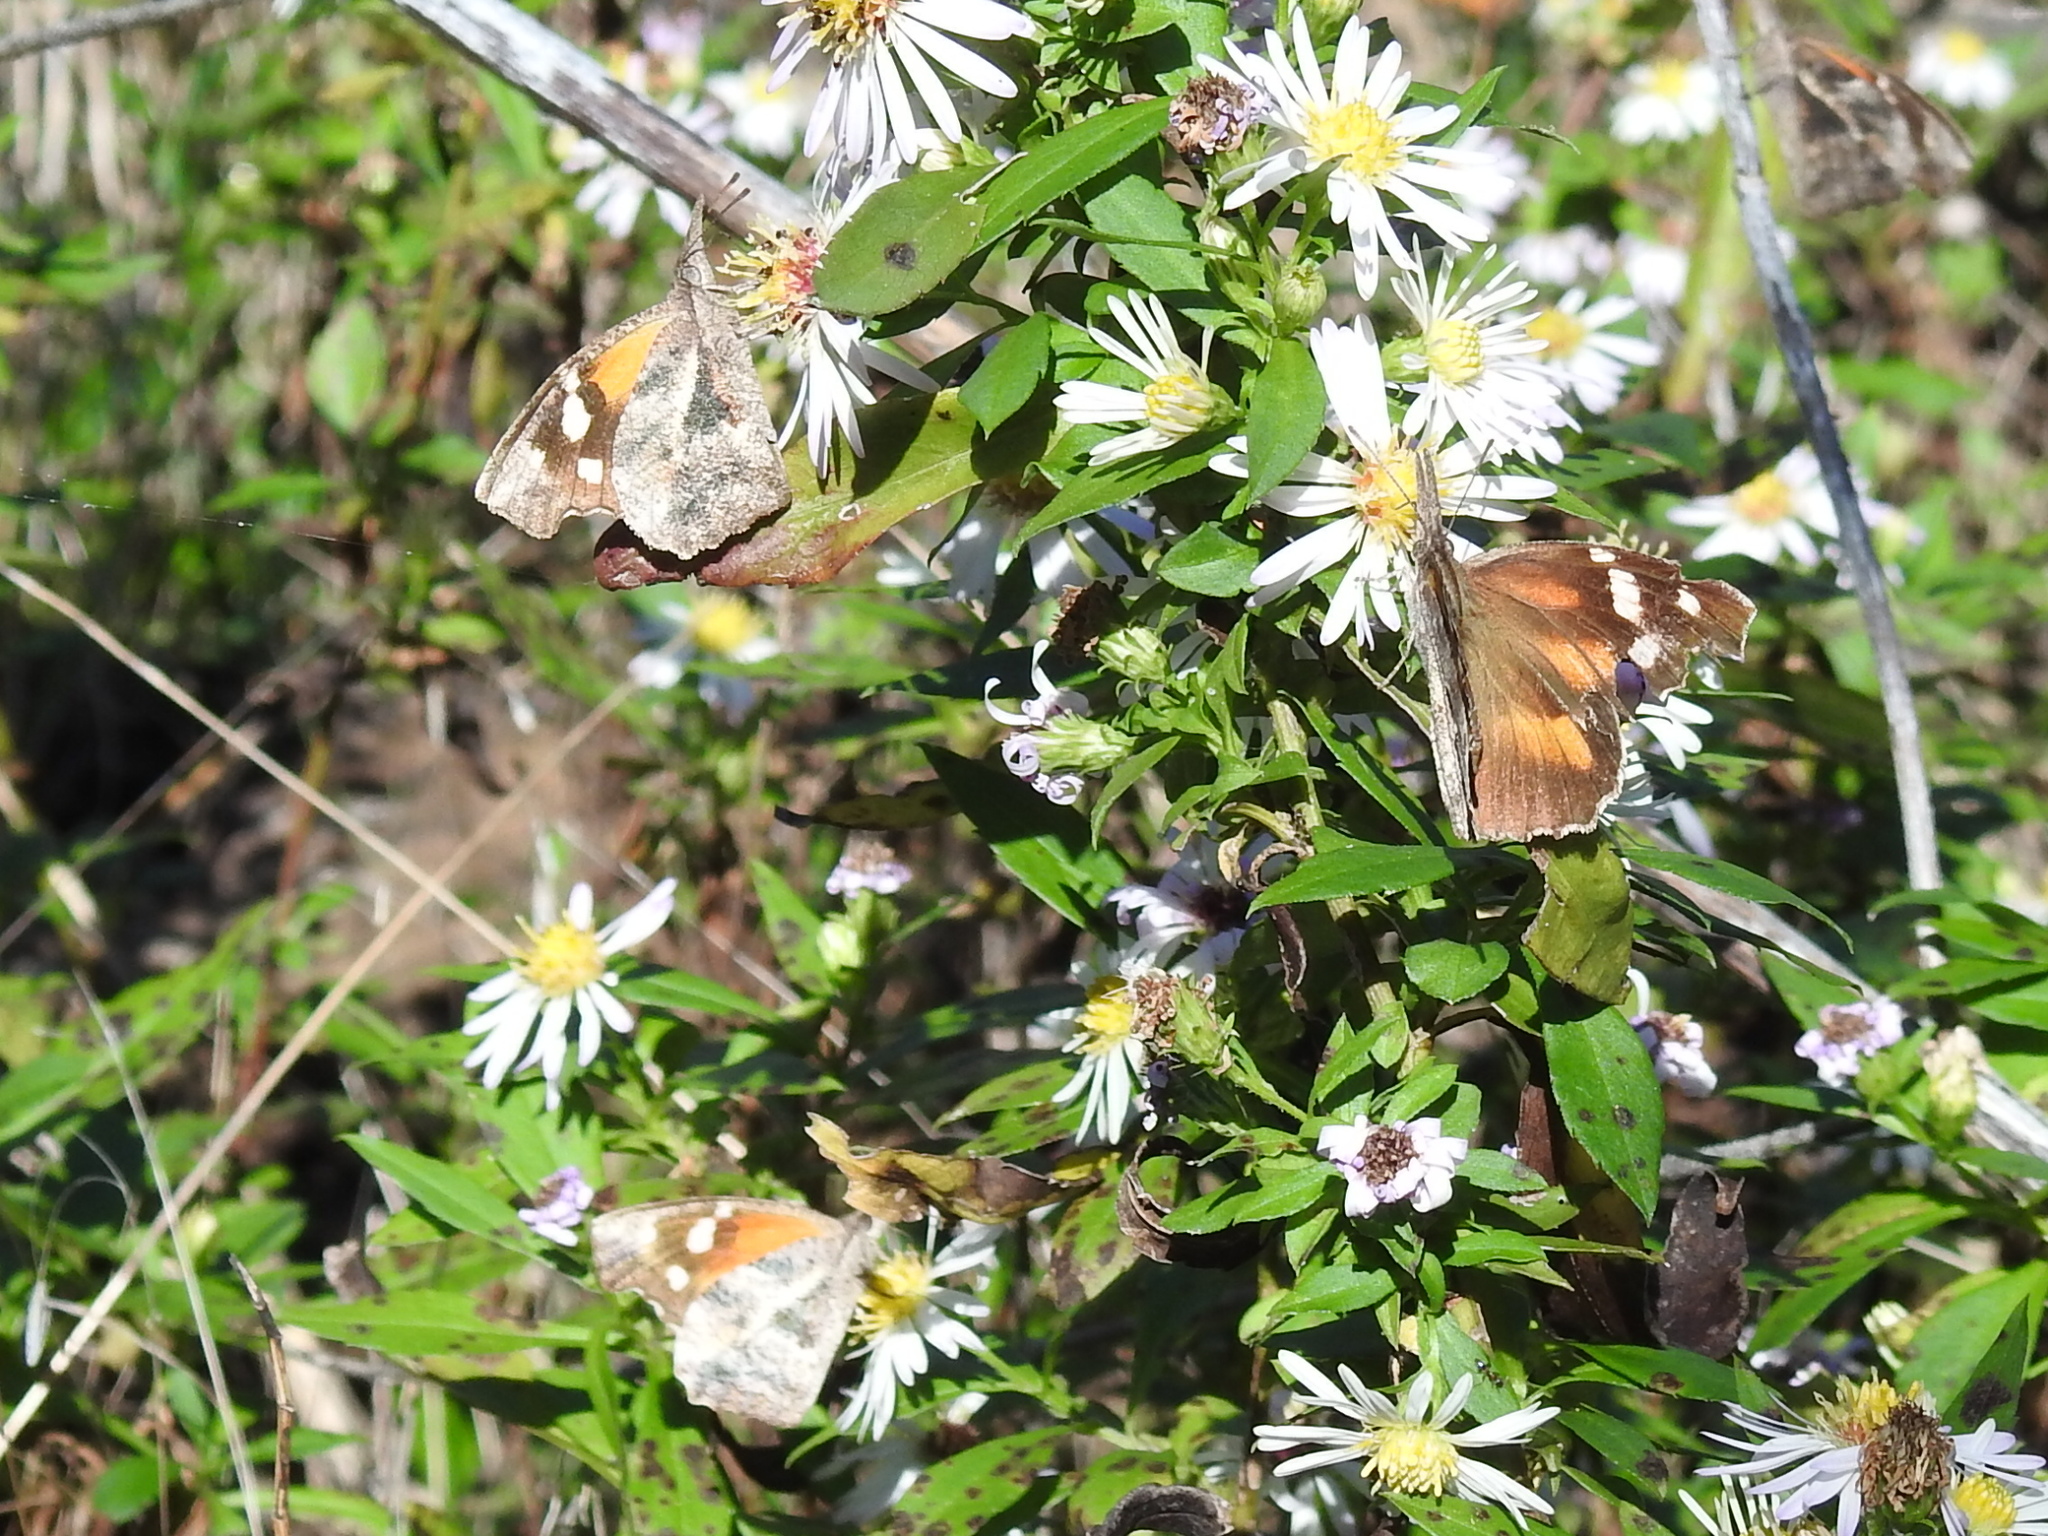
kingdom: Animalia
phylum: Arthropoda
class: Insecta
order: Lepidoptera
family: Nymphalidae
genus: Libytheana
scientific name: Libytheana carinenta
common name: American snout
